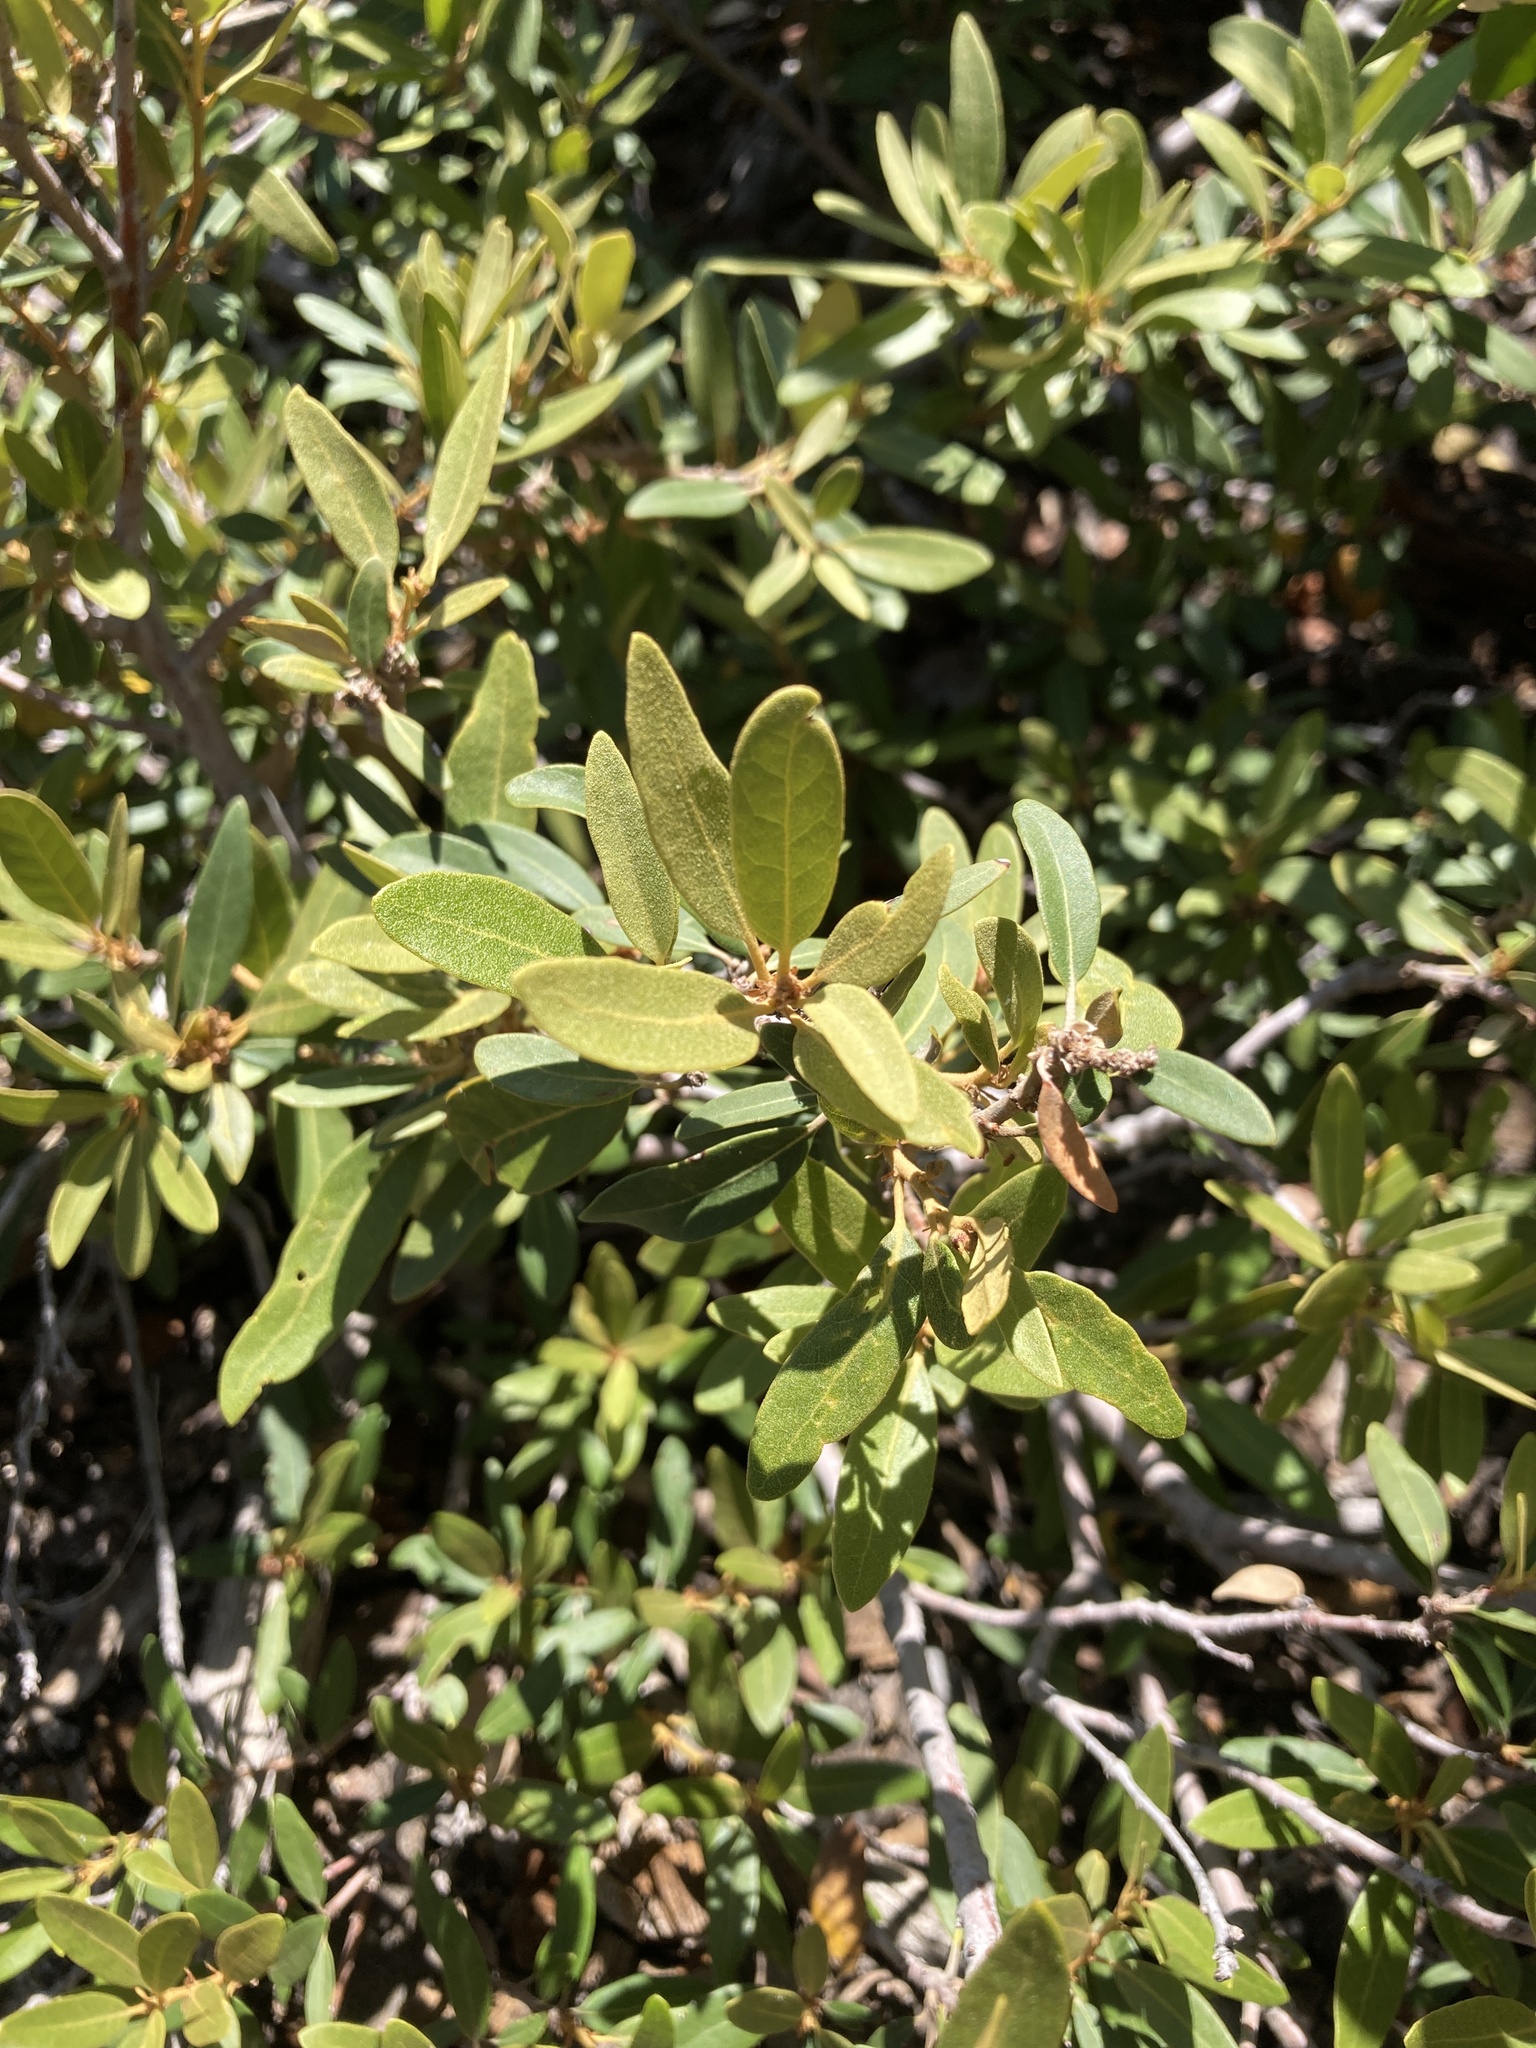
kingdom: Plantae
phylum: Tracheophyta
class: Magnoliopsida
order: Fagales
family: Fagaceae
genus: Chrysolepis
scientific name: Chrysolepis sempervirens
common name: Bush chinquapin
